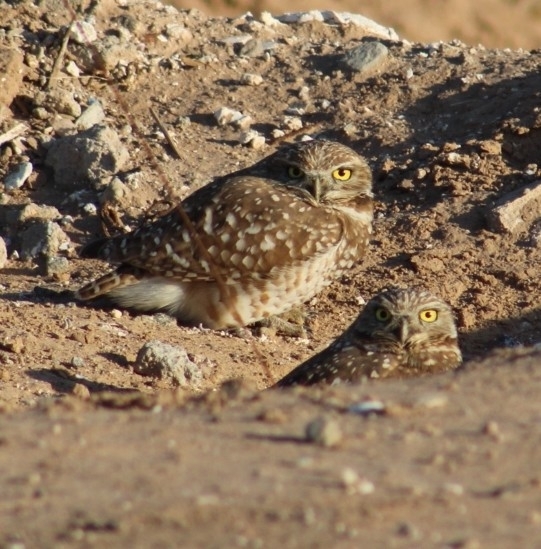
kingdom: Animalia
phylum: Chordata
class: Aves
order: Strigiformes
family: Strigidae
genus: Athene
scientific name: Athene cunicularia
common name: Burrowing owl
